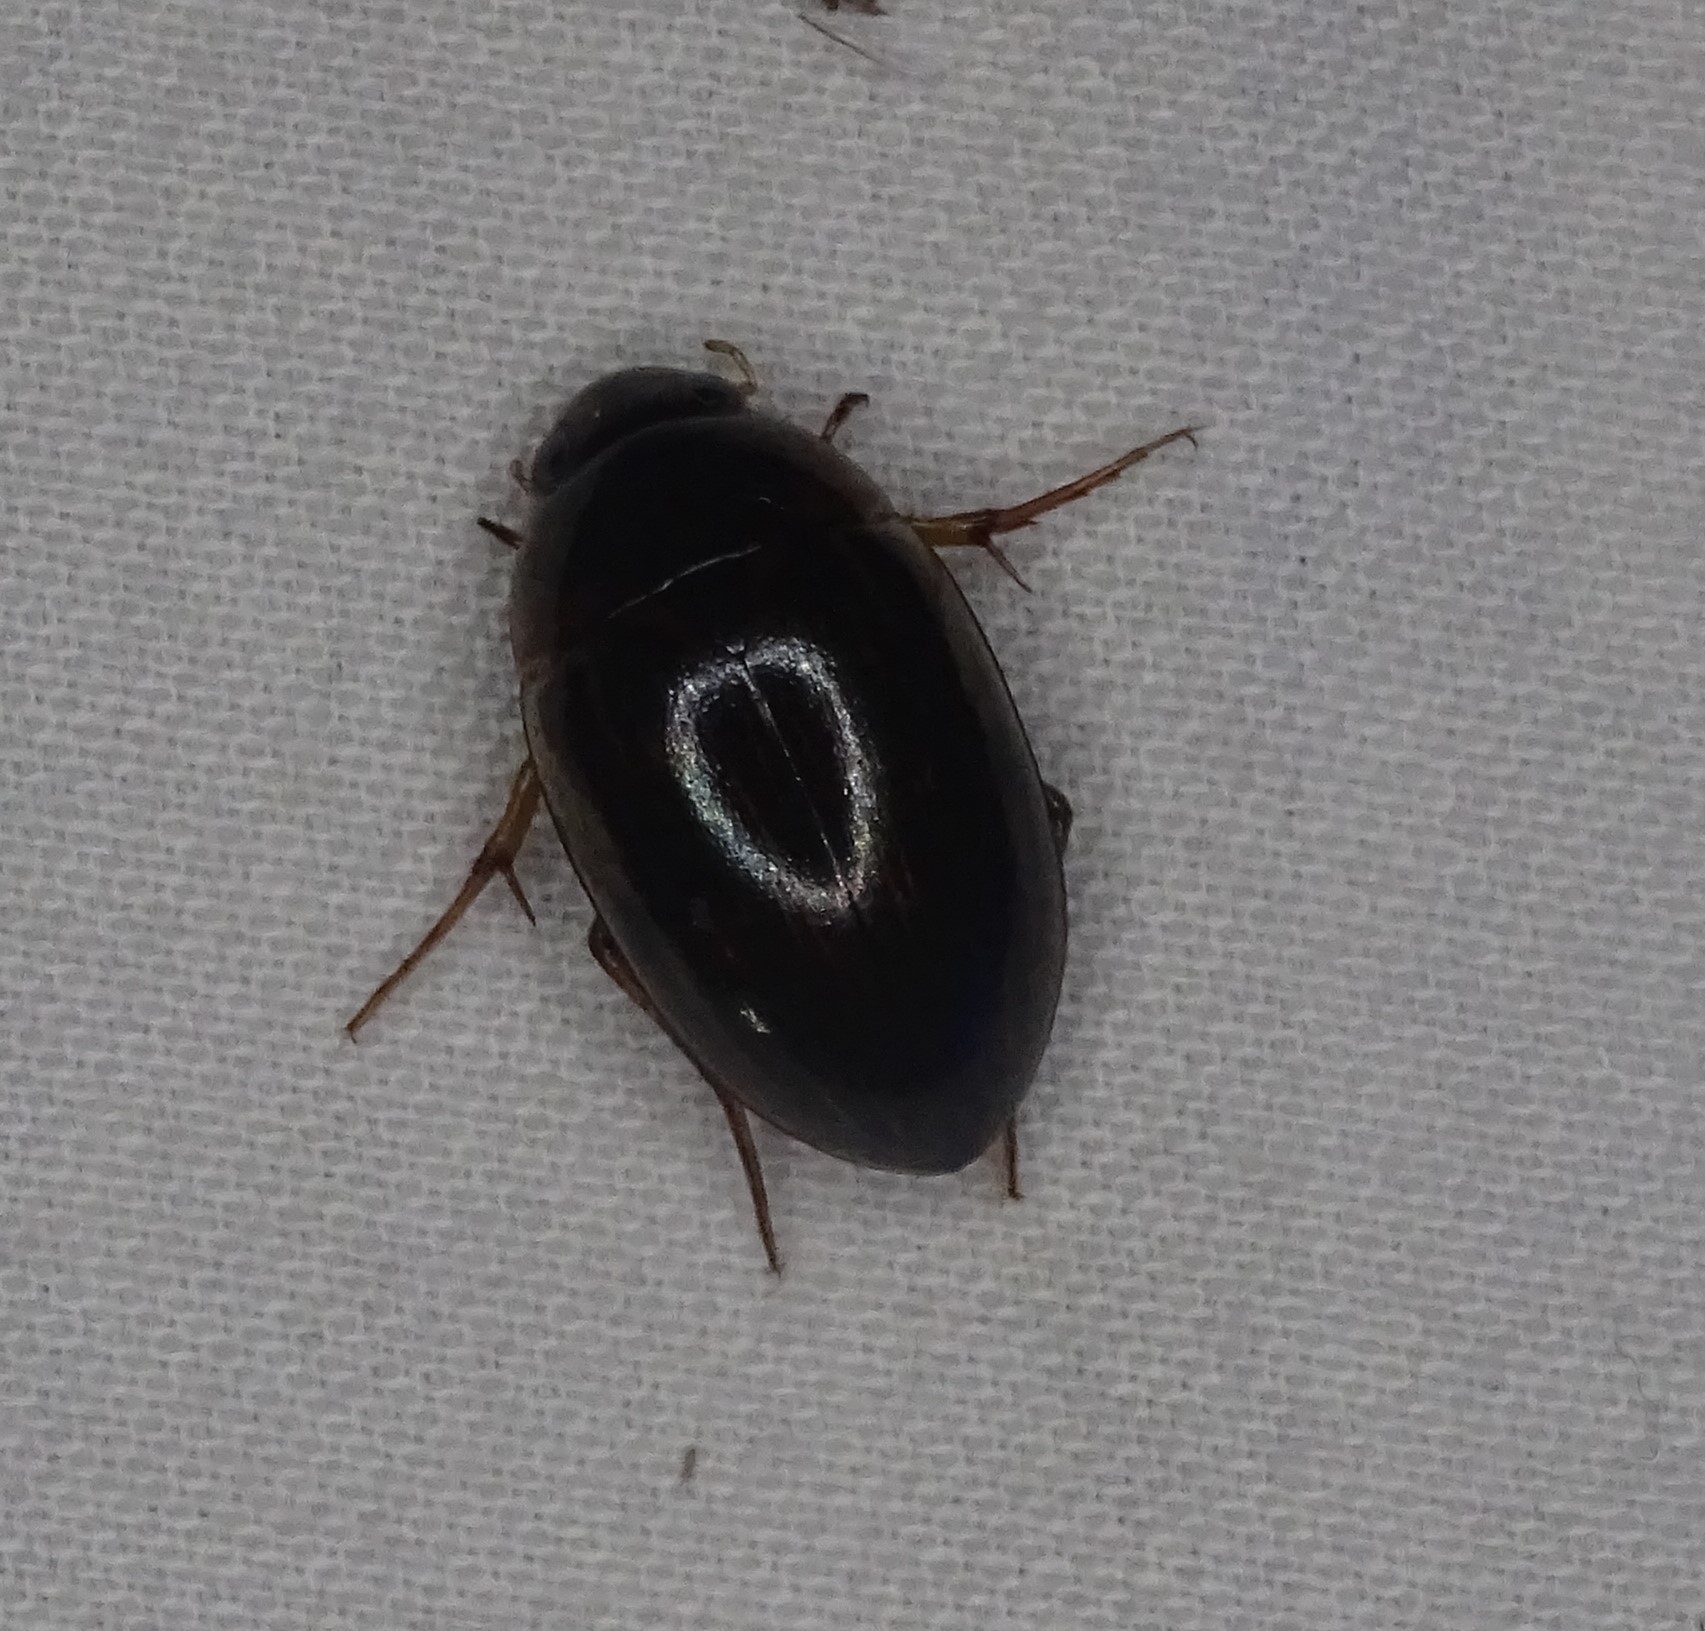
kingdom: Animalia
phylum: Arthropoda
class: Insecta
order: Coleoptera
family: Hydrophilidae
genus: Tropisternus
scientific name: Tropisternus collaris
